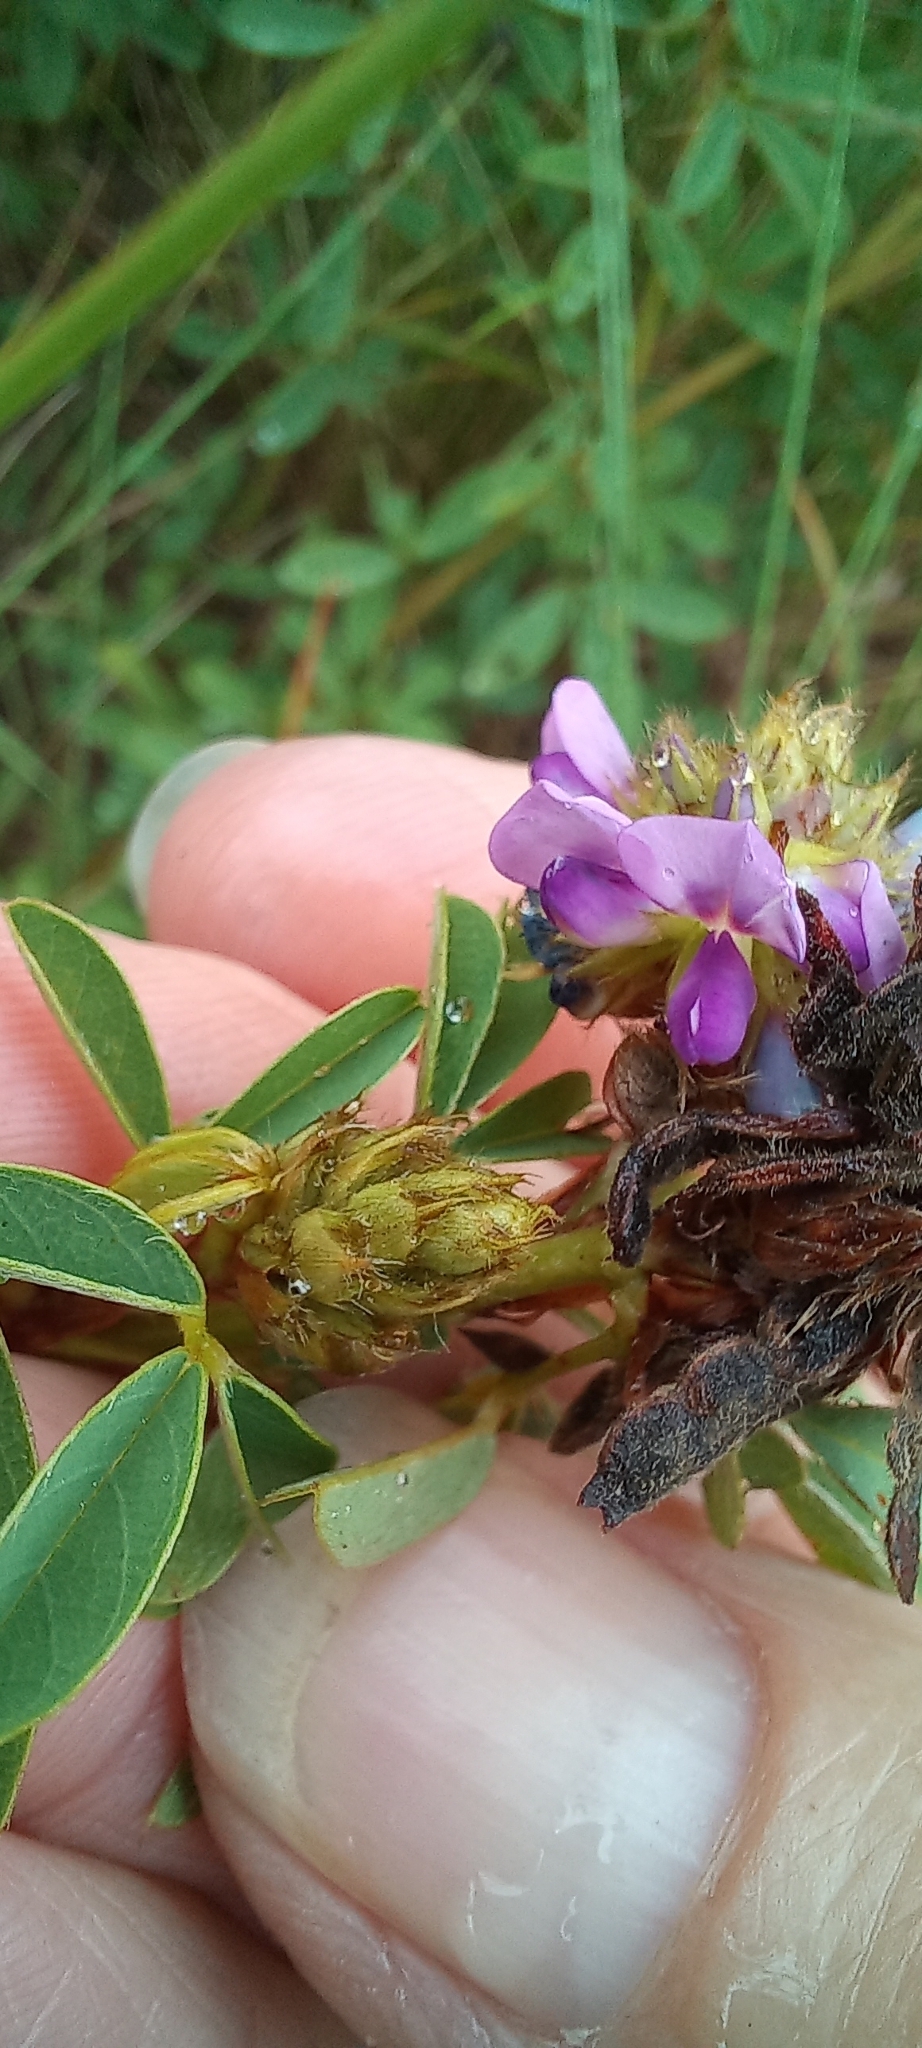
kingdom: Plantae
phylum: Tracheophyta
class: Magnoliopsida
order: Fabales
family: Fabaceae
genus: Grona
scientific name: Grona caffra
